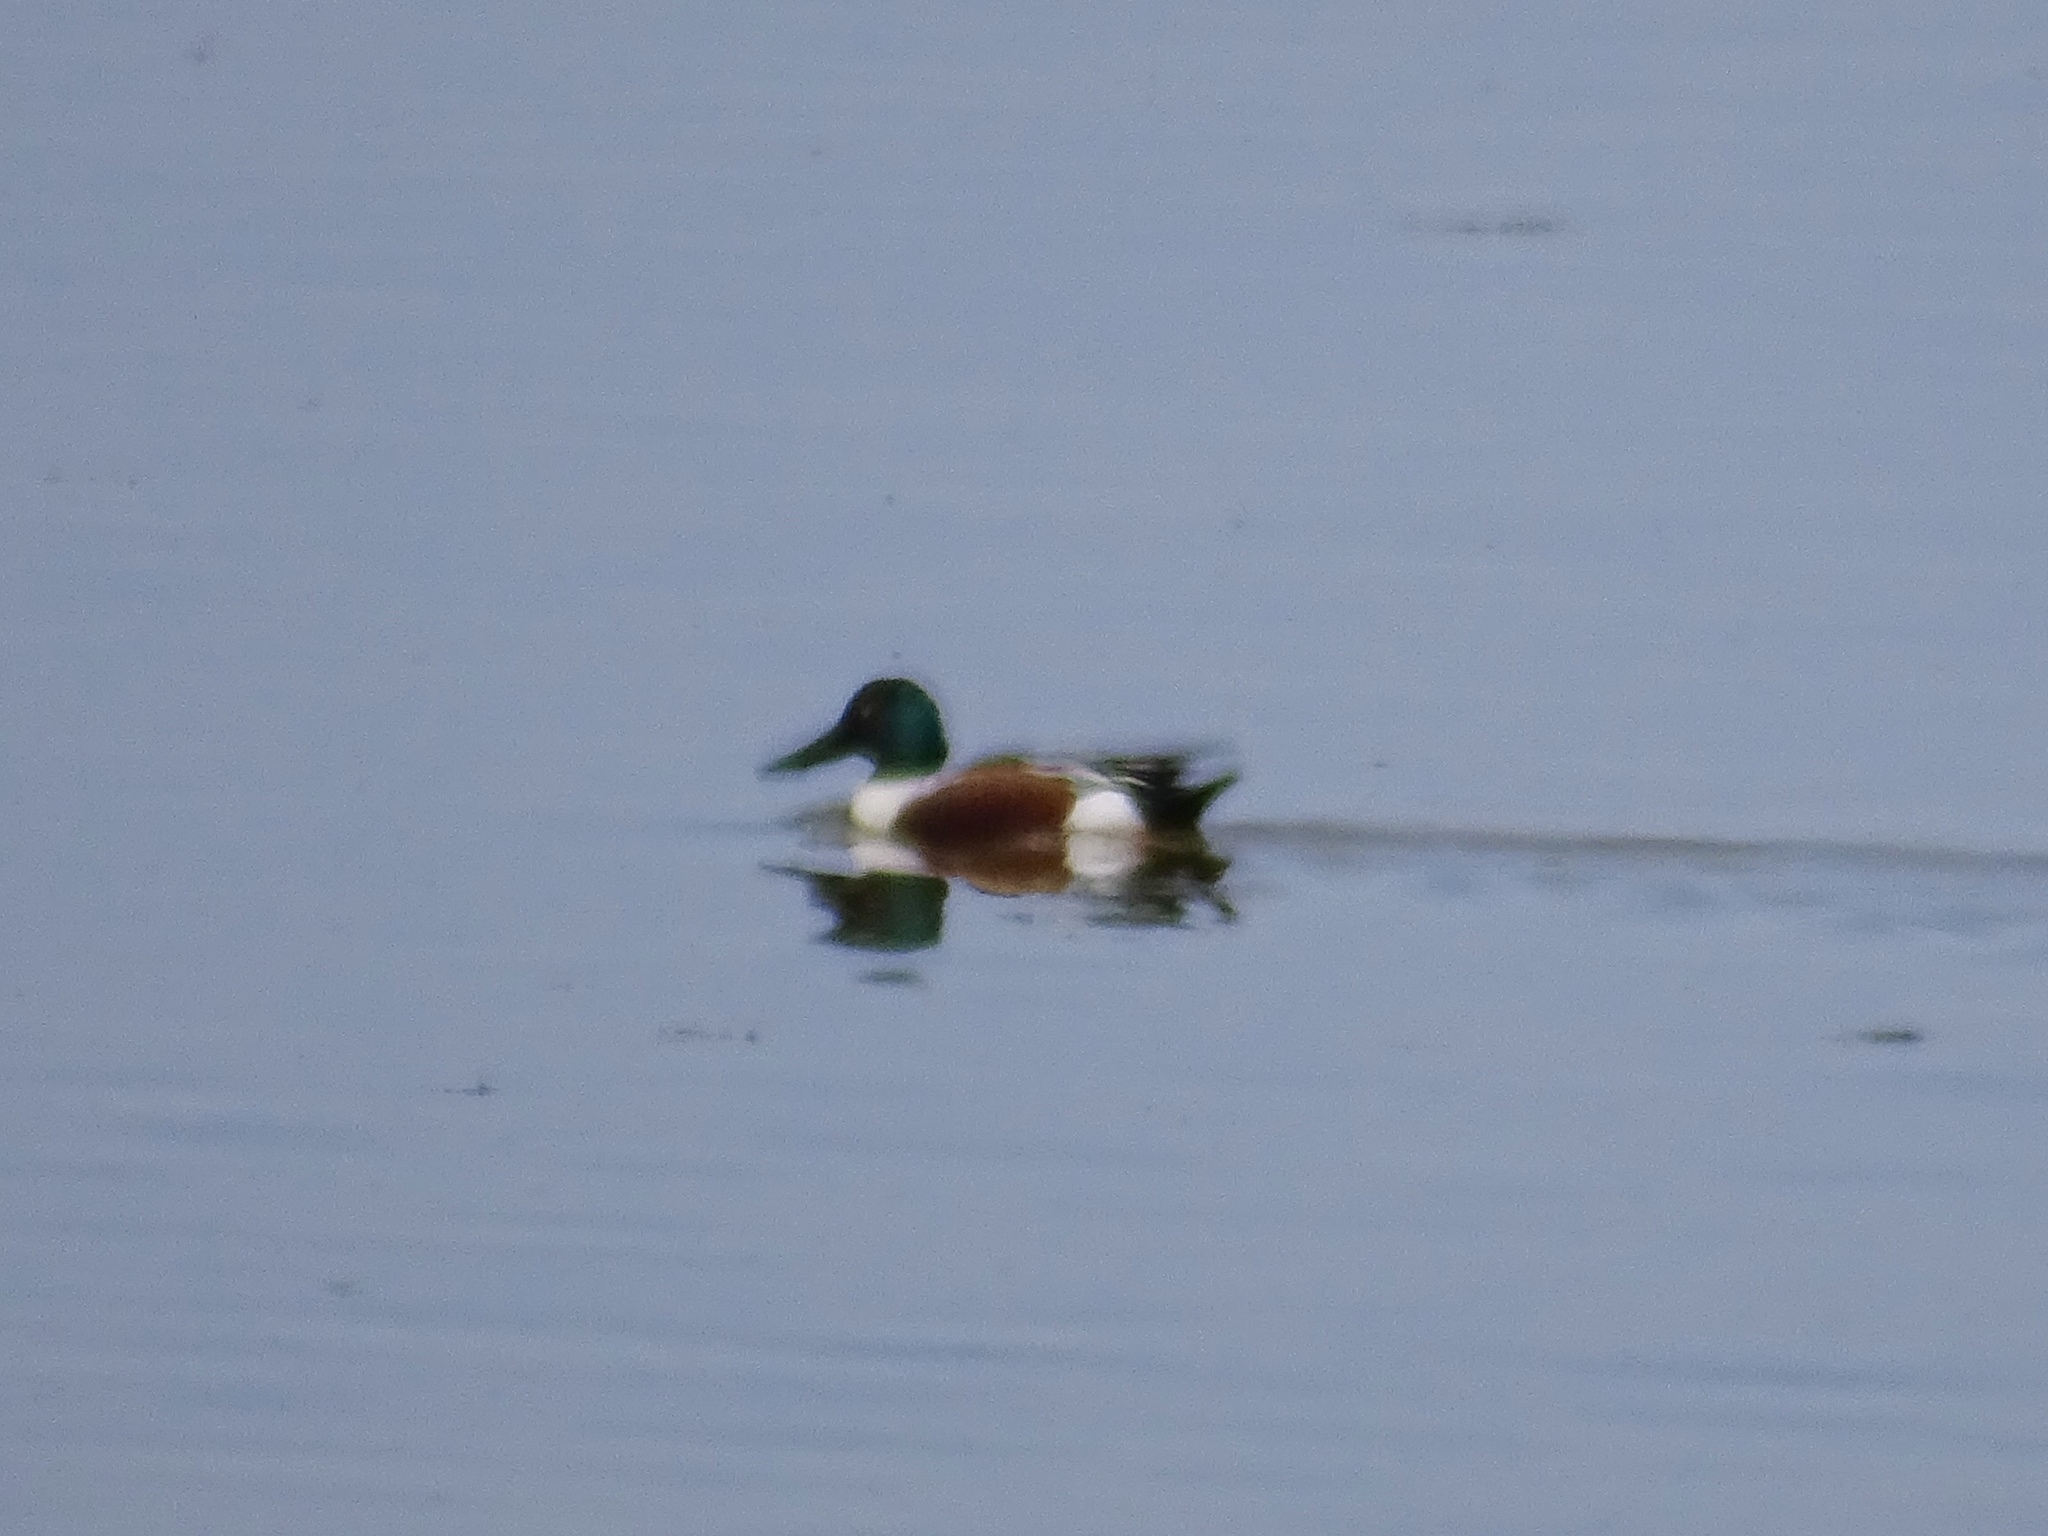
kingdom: Animalia
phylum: Chordata
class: Aves
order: Anseriformes
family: Anatidae
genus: Spatula
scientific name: Spatula clypeata
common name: Northern shoveler
